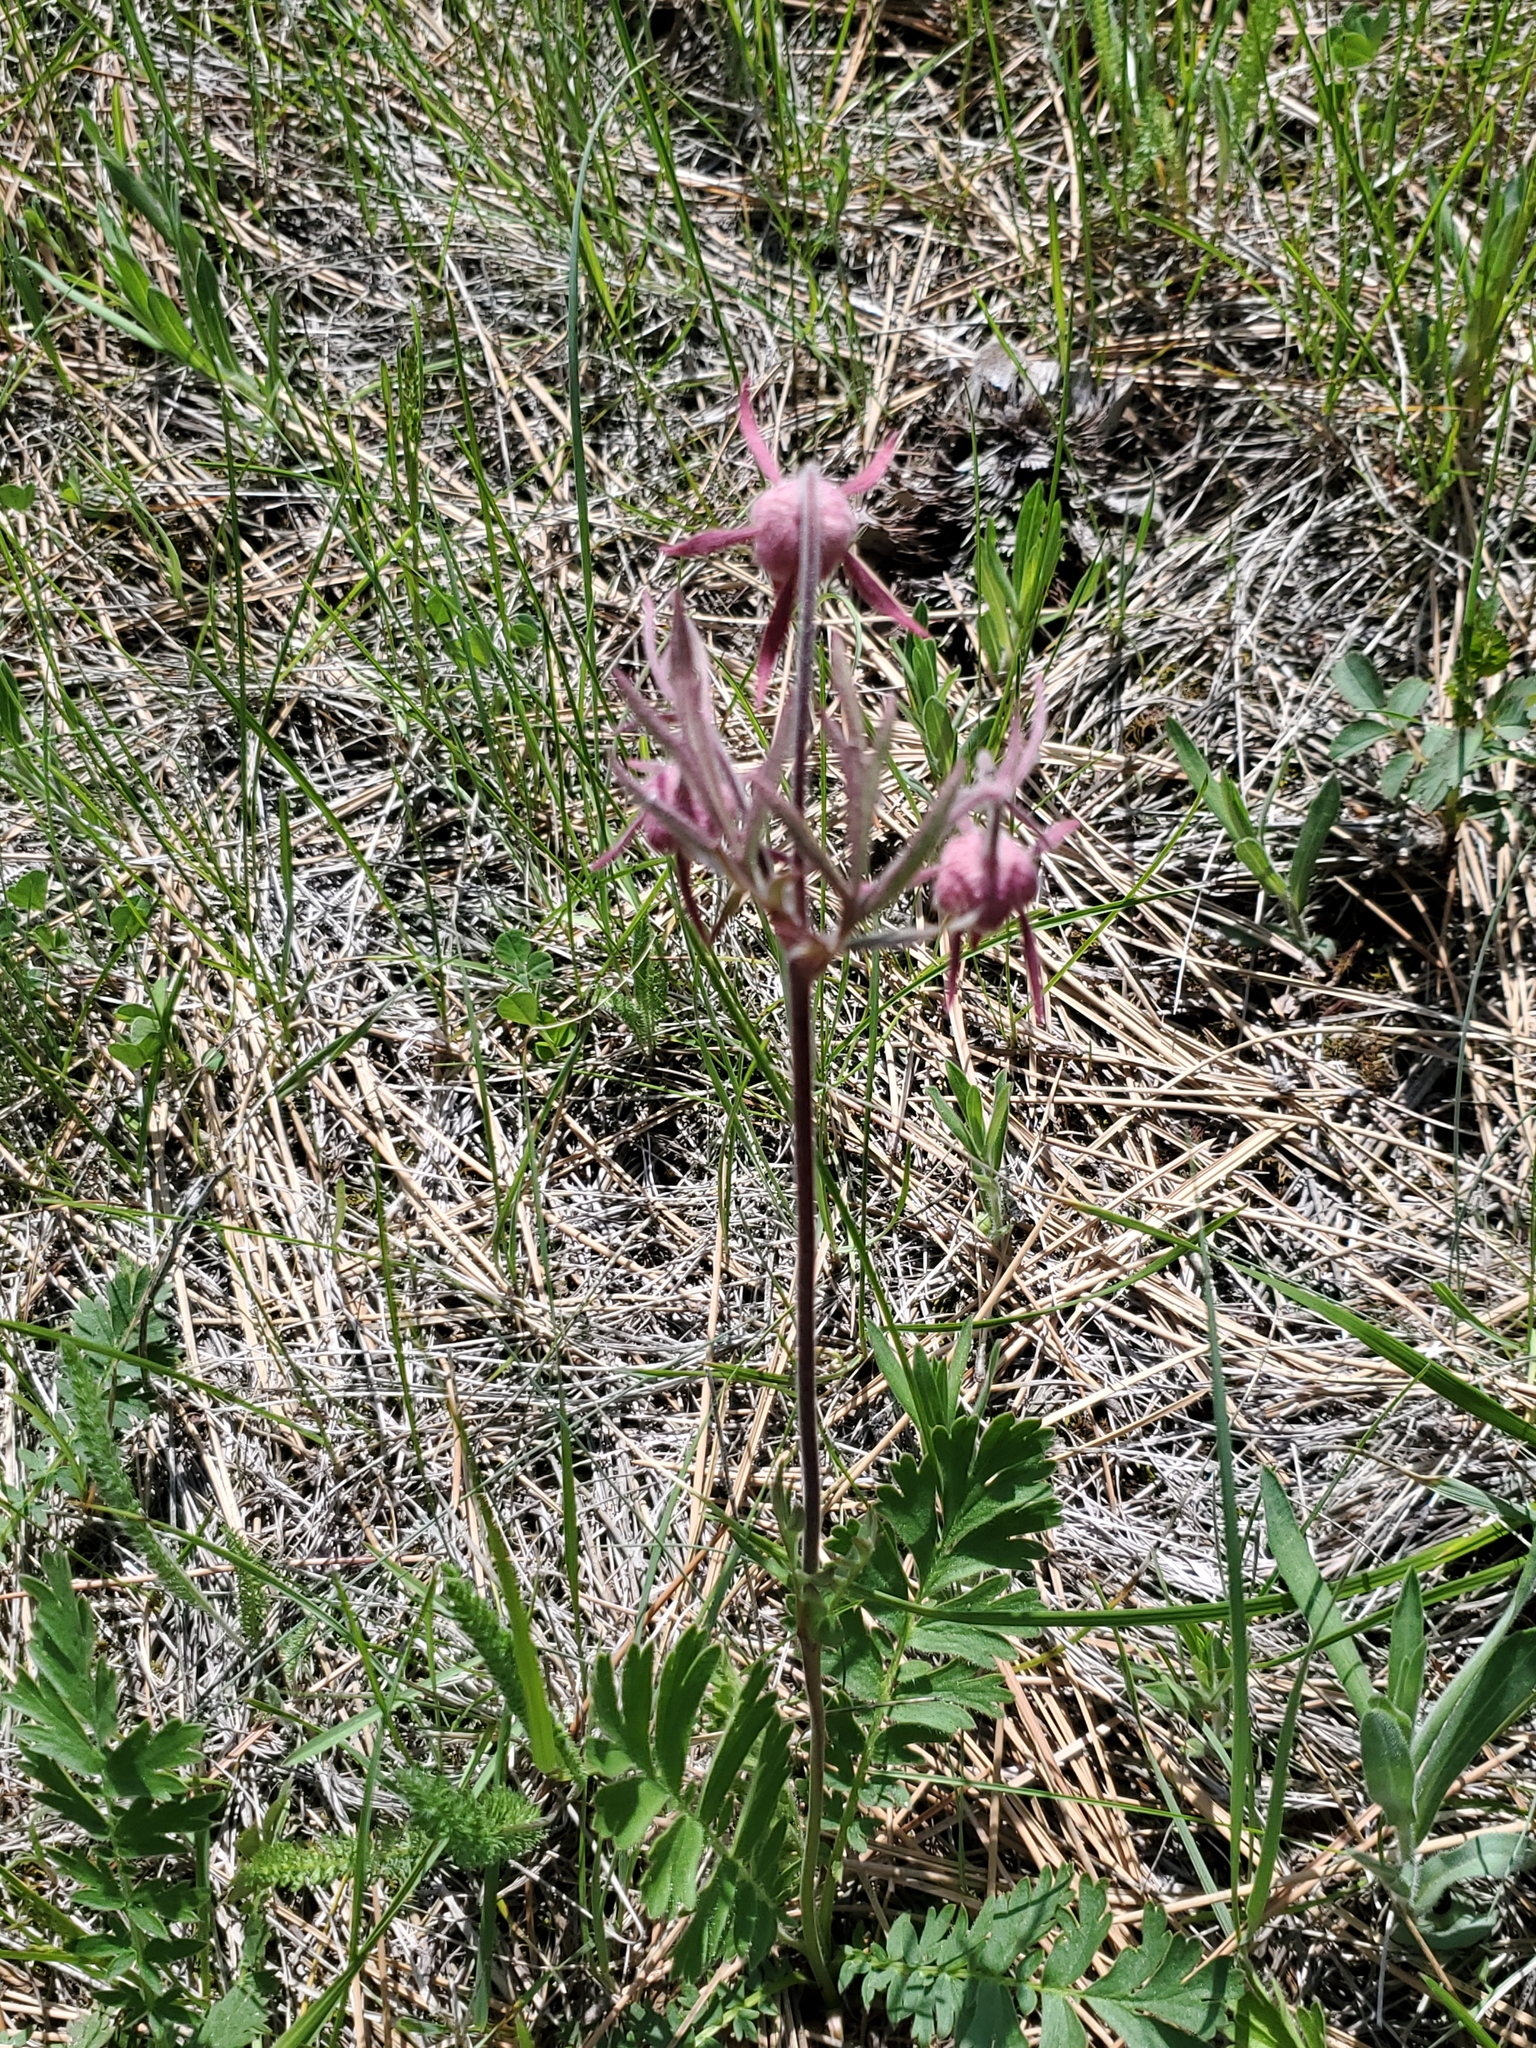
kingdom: Plantae
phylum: Tracheophyta
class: Magnoliopsida
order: Rosales
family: Rosaceae
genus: Geum
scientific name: Geum triflorum
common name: Old man's whiskers
